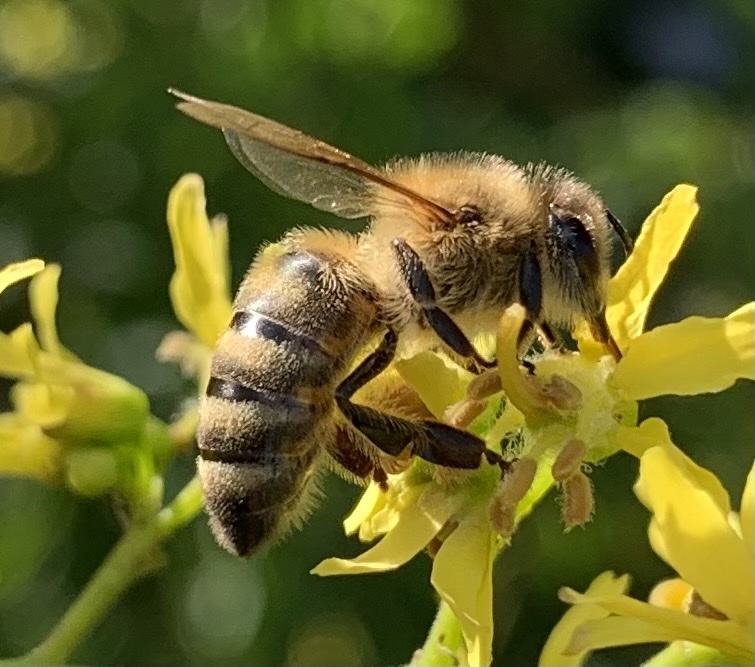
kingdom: Animalia
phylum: Arthropoda
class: Insecta
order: Hymenoptera
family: Apidae
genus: Apis
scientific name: Apis mellifera
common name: Honey bee
